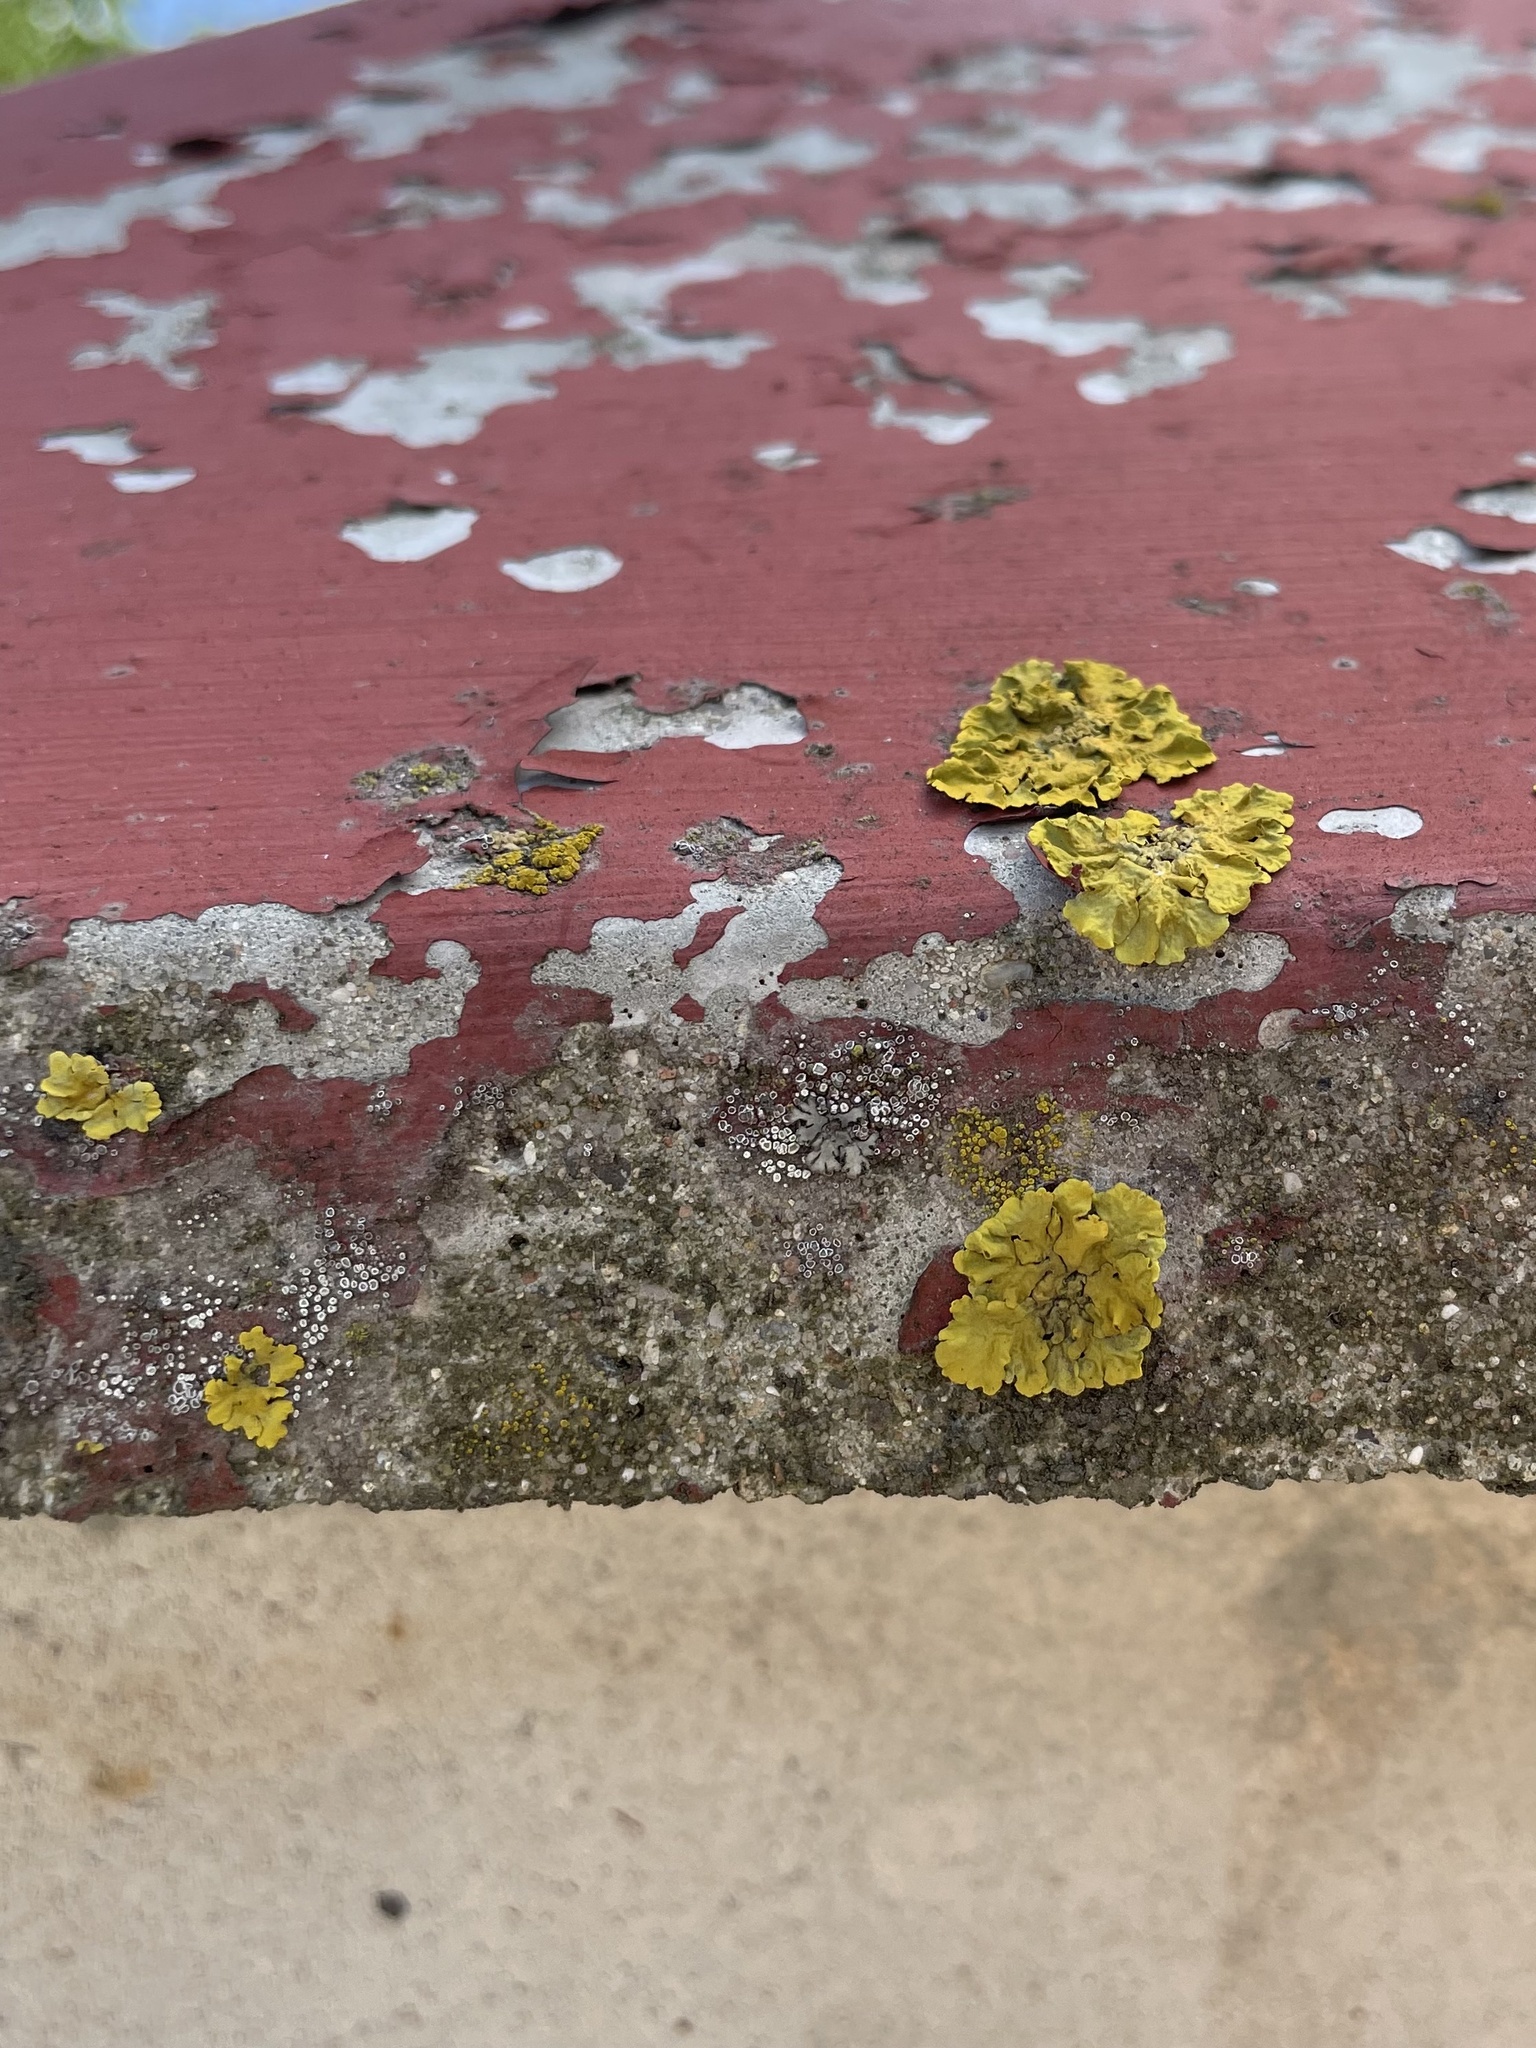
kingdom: Fungi
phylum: Ascomycota
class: Lecanoromycetes
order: Teloschistales
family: Teloschistaceae
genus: Xanthoria
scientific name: Xanthoria parietina
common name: Common orange lichen
